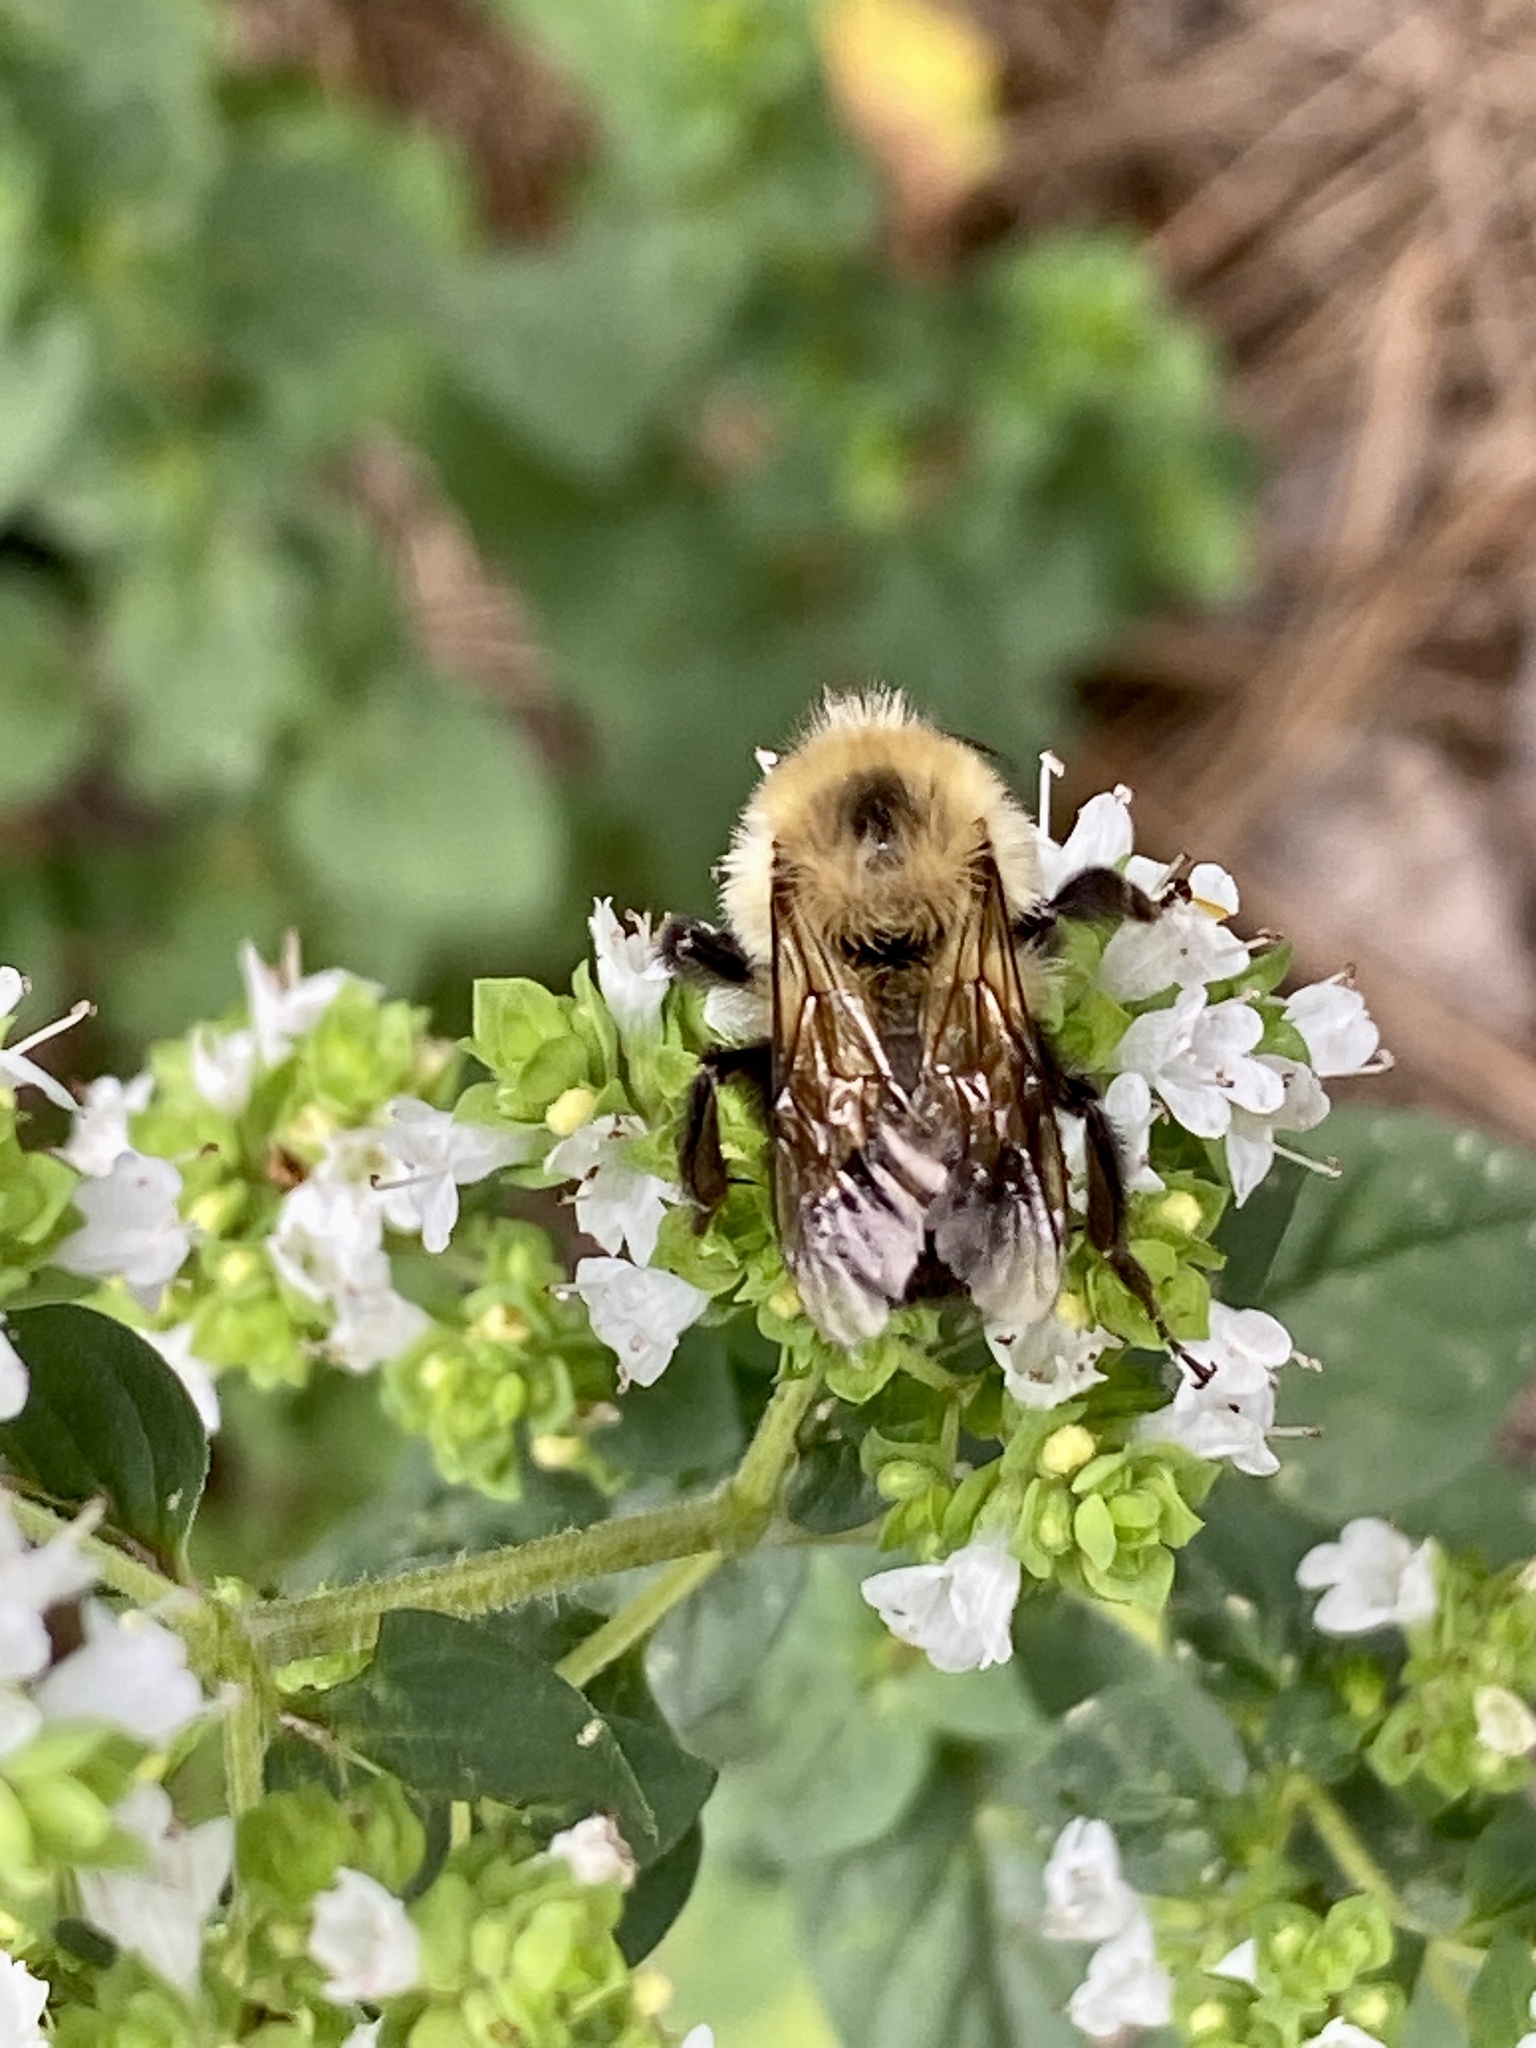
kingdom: Animalia
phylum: Arthropoda
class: Insecta
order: Hymenoptera
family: Apidae
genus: Bombus
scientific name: Bombus bimaculatus
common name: Two-spotted bumble bee
